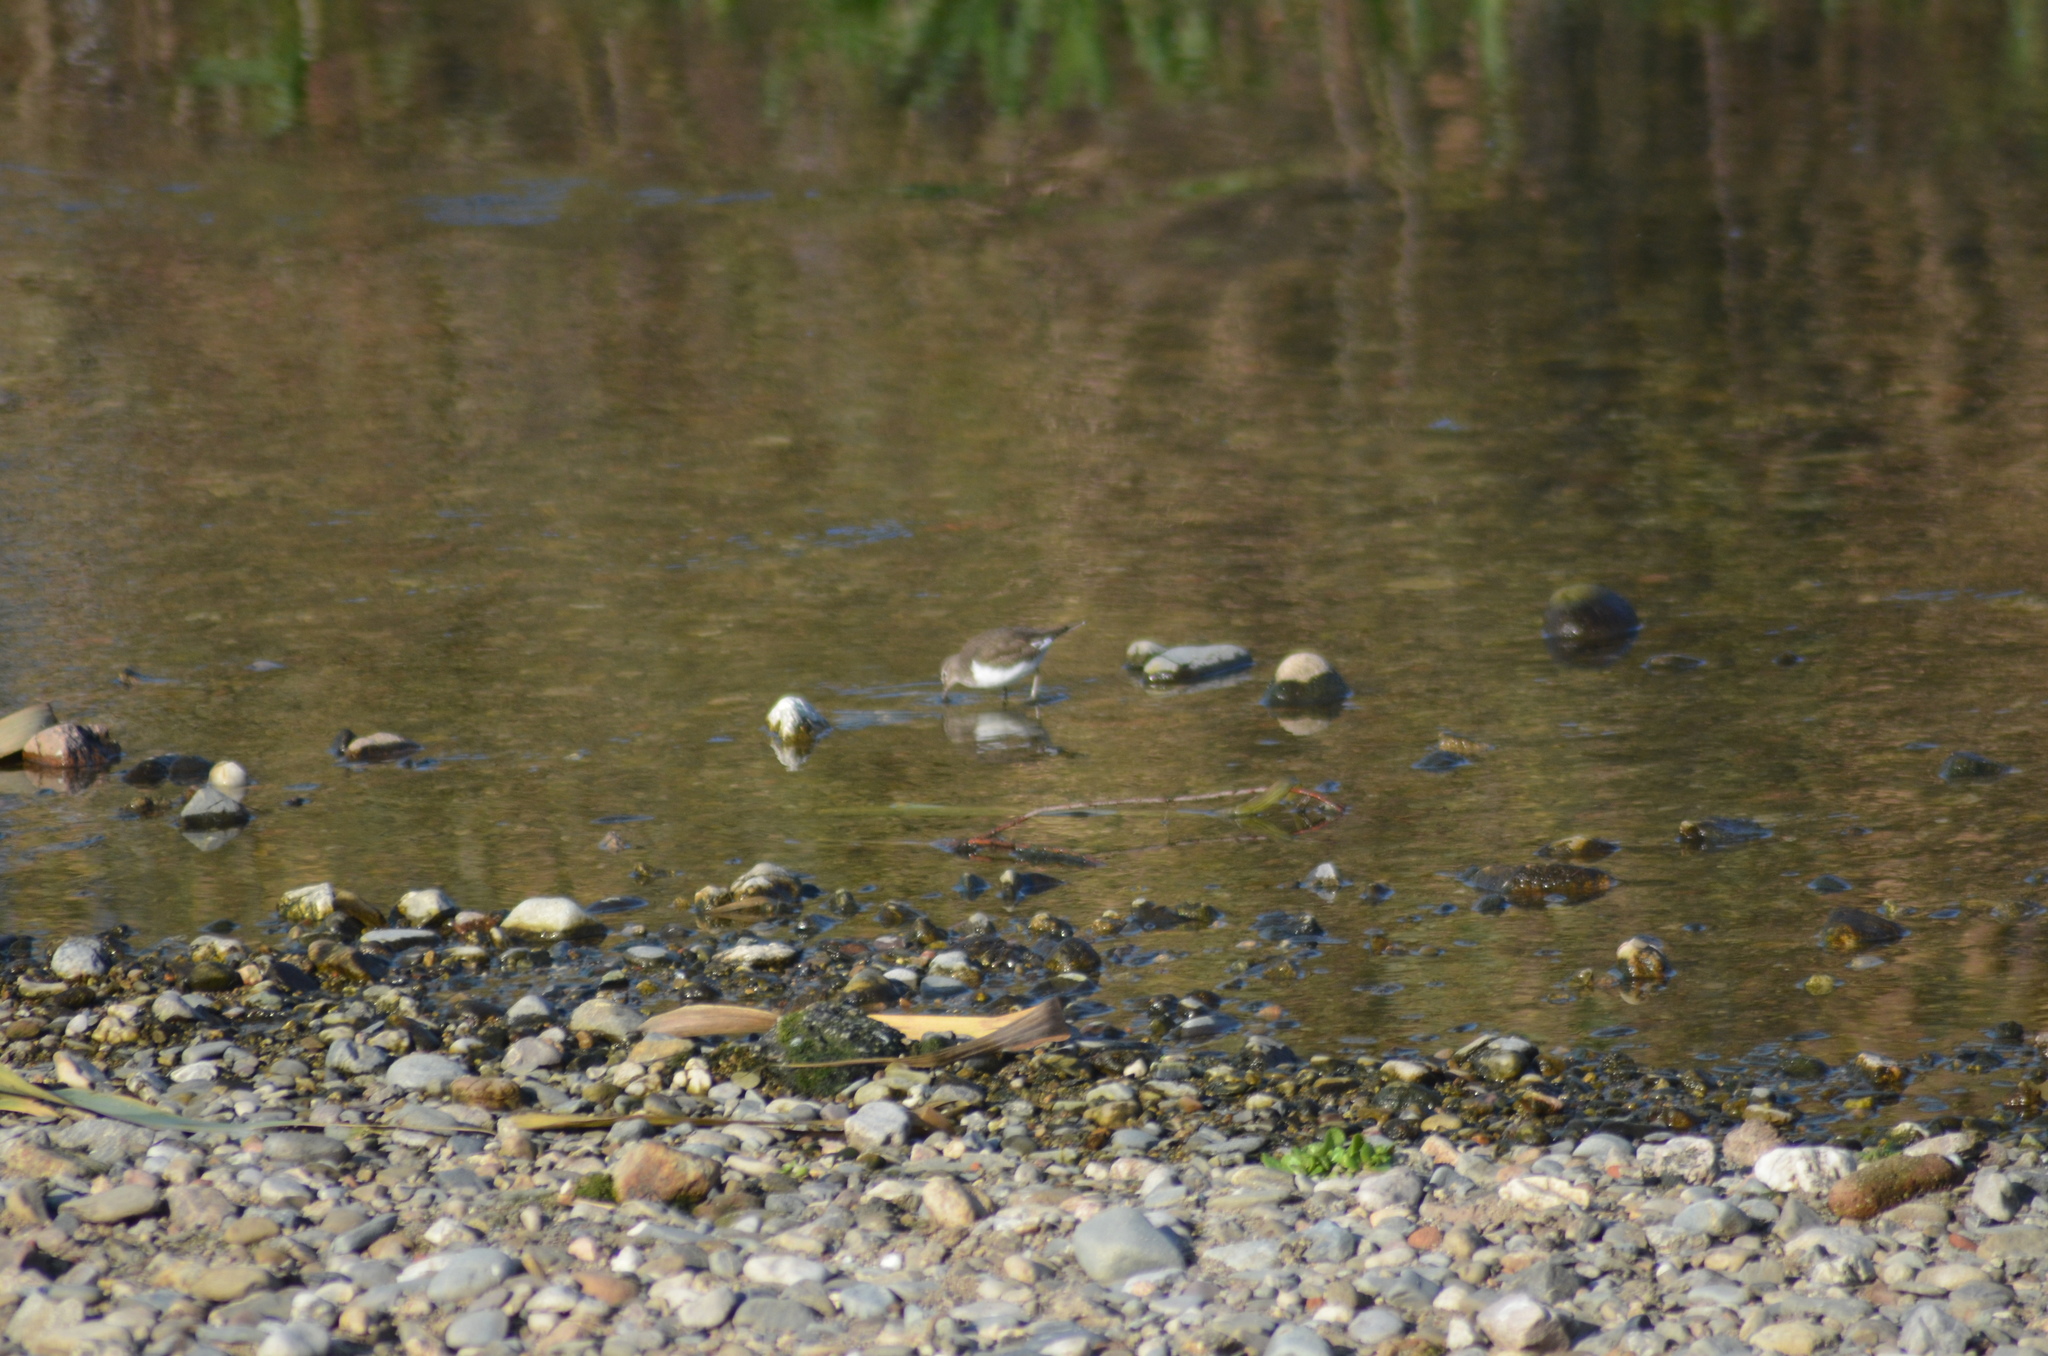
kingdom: Animalia
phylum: Chordata
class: Aves
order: Charadriiformes
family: Scolopacidae
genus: Actitis
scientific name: Actitis hypoleucos
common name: Common sandpiper
